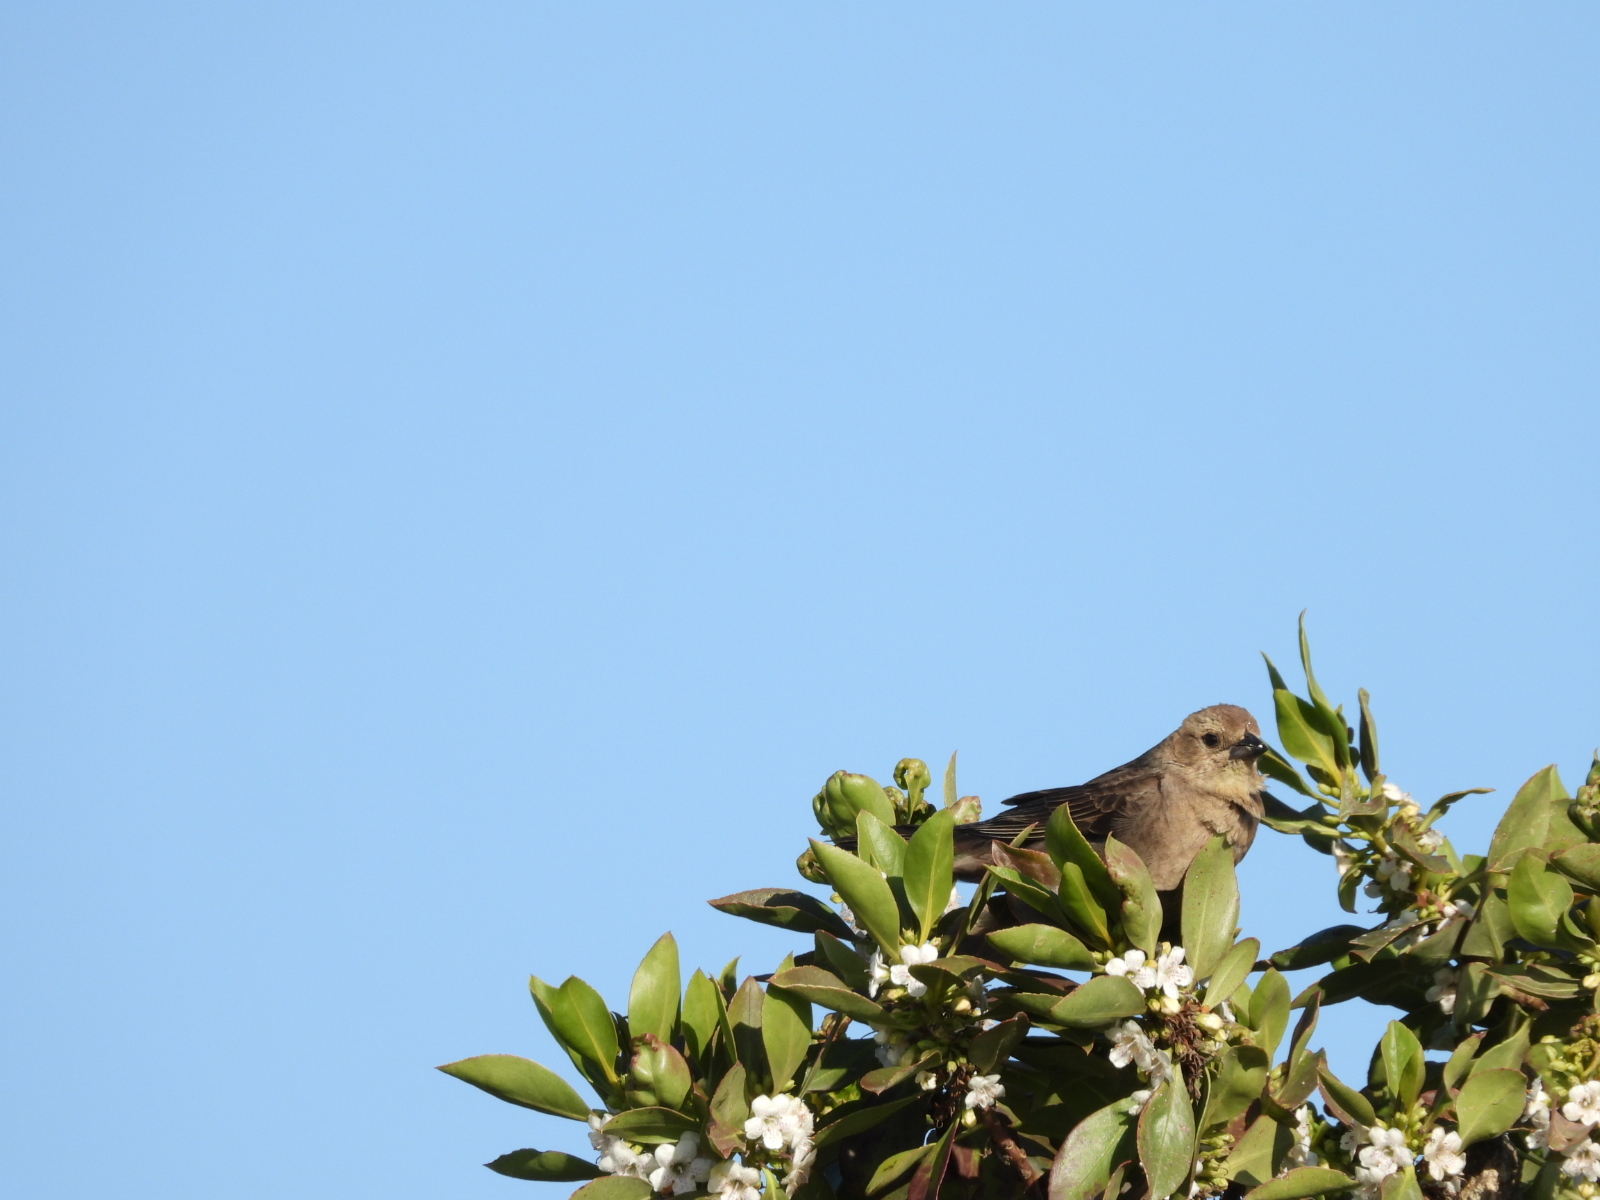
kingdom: Animalia
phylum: Chordata
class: Aves
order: Passeriformes
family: Icteridae
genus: Molothrus
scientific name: Molothrus ater
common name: Brown-headed cowbird
